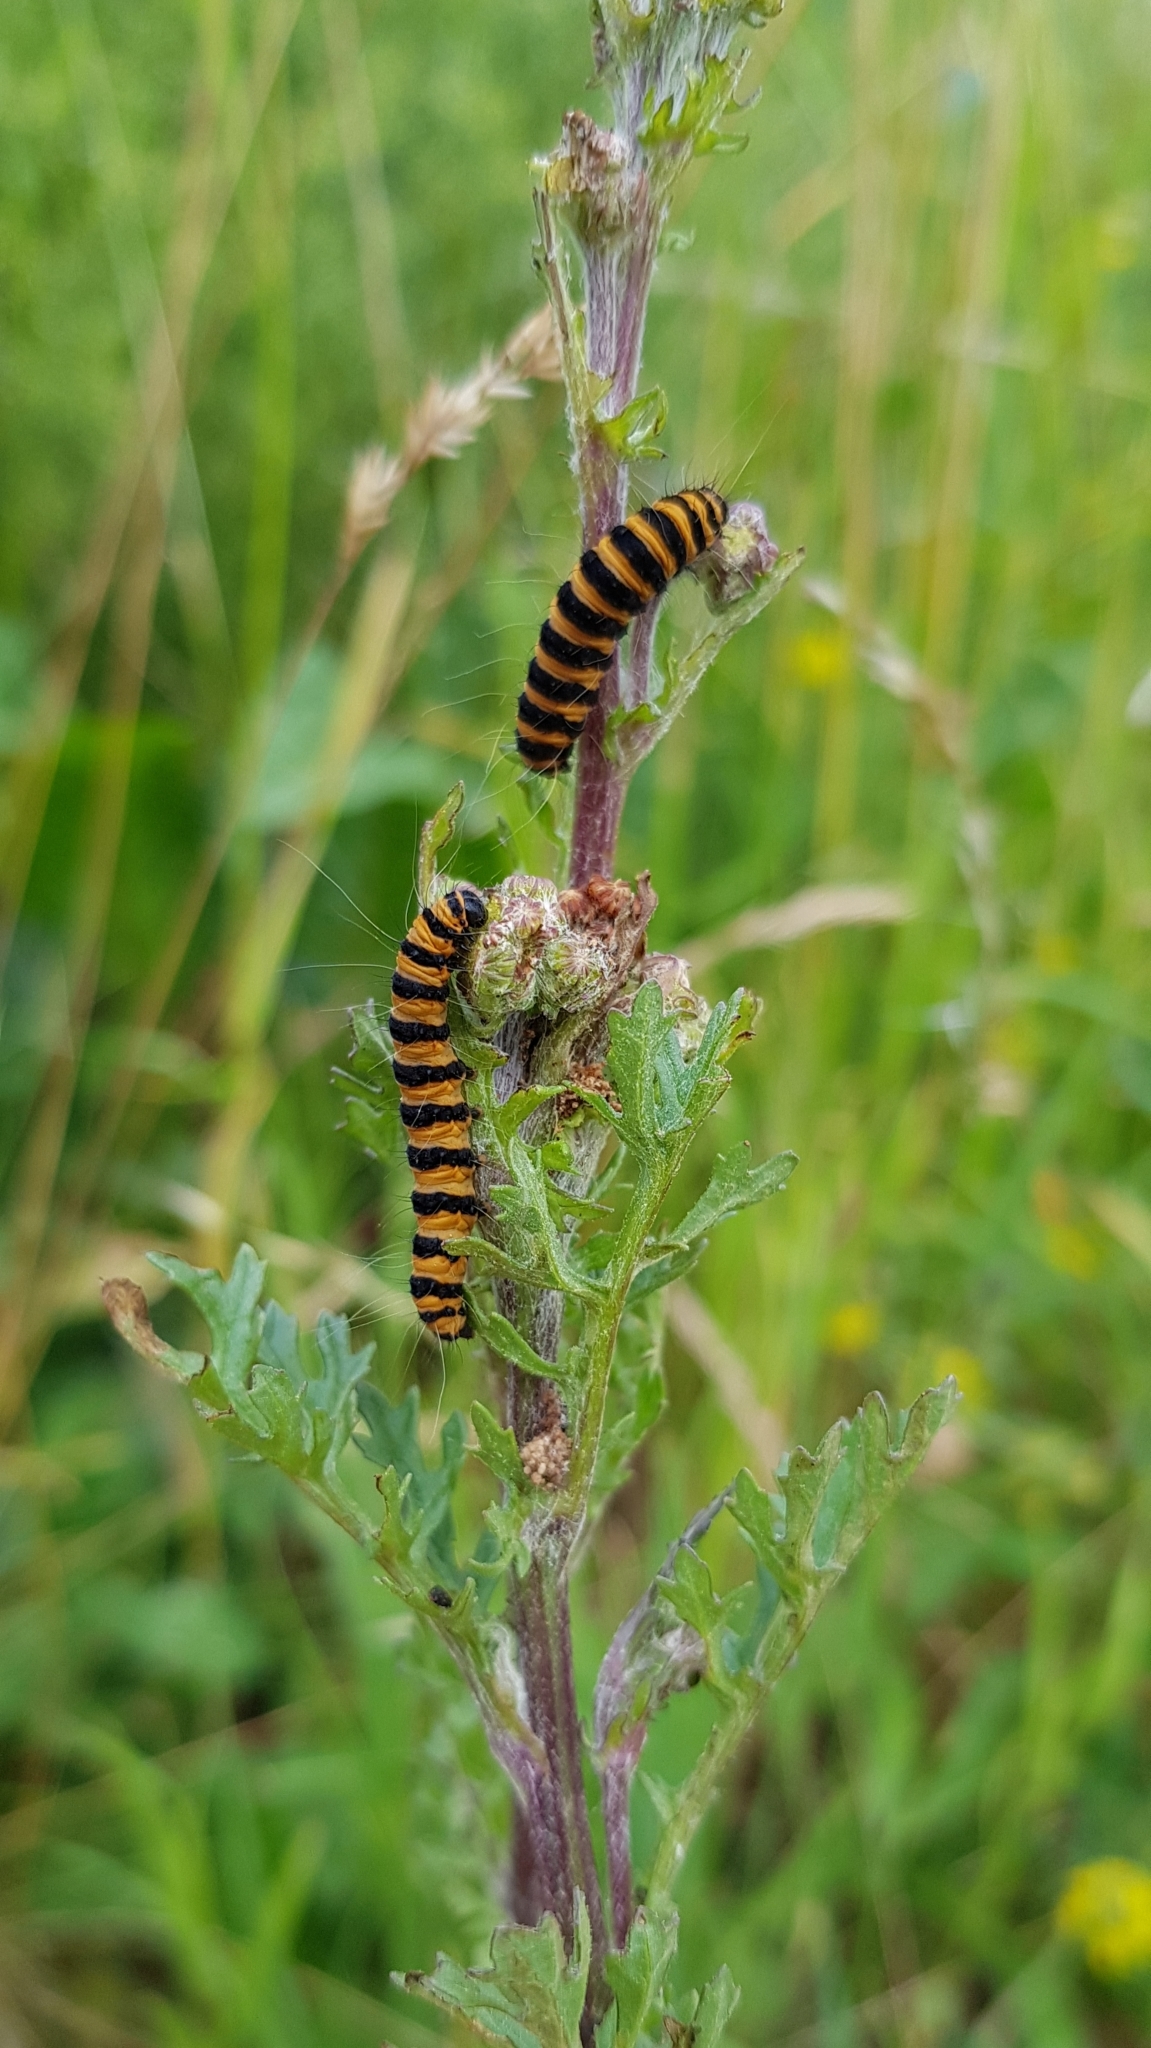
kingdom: Animalia
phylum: Arthropoda
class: Insecta
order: Lepidoptera
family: Erebidae
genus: Tyria
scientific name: Tyria jacobaeae
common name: Cinnabar
